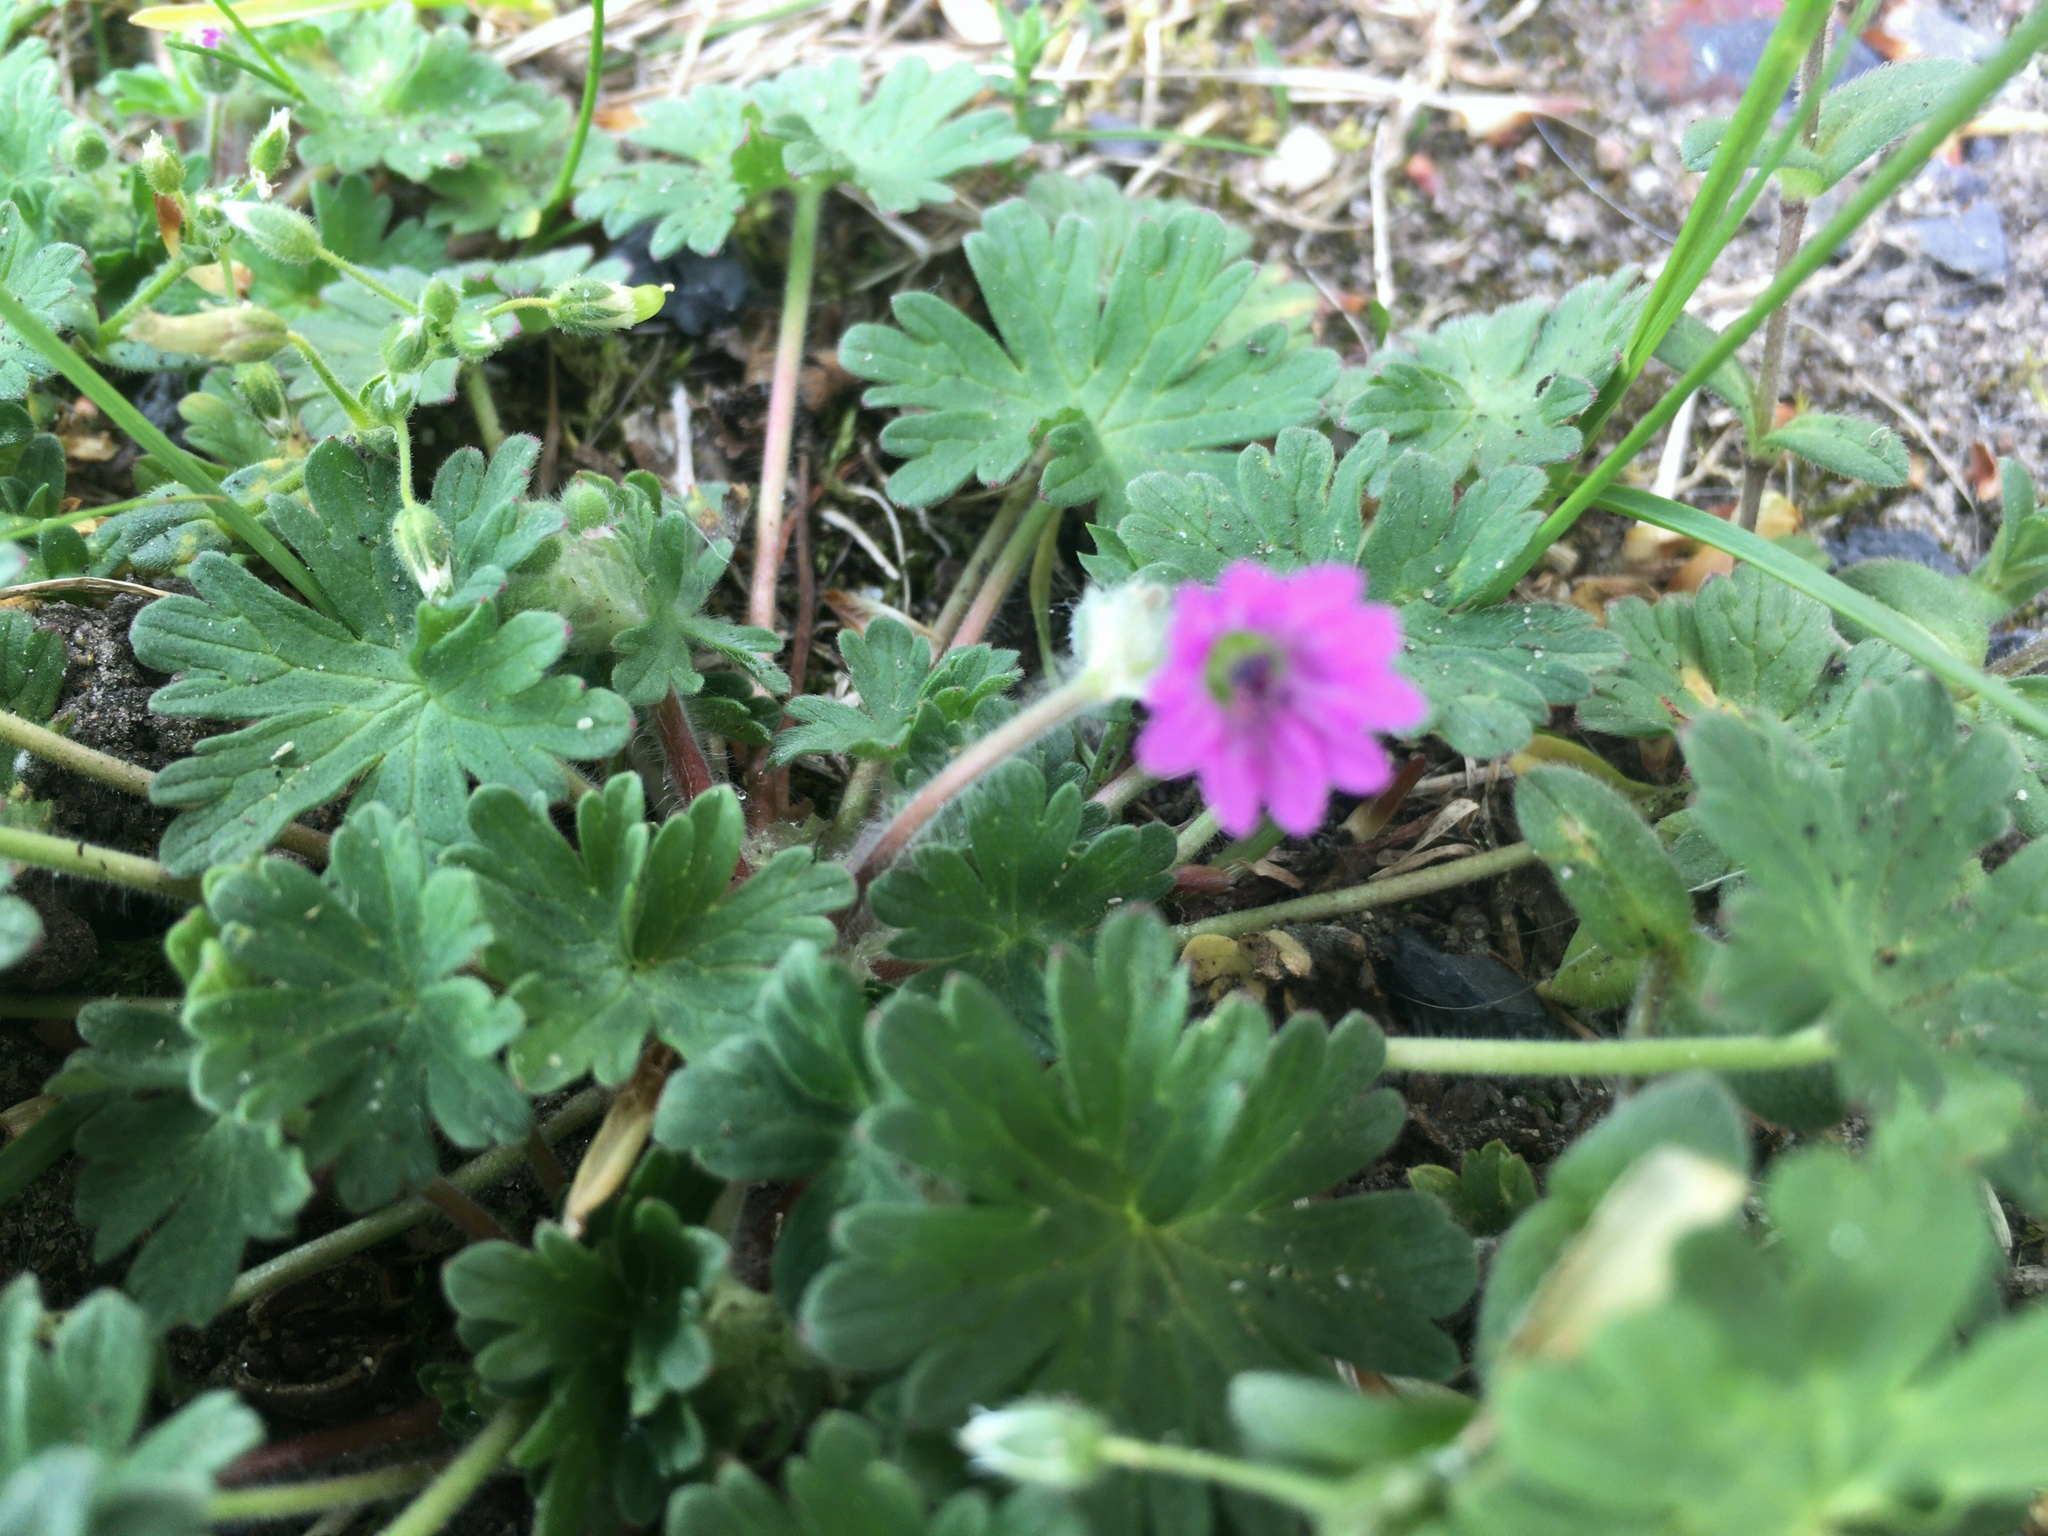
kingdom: Plantae
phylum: Tracheophyta
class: Magnoliopsida
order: Geraniales
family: Geraniaceae
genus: Geranium
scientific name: Geranium molle
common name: Dove's-foot crane's-bill
